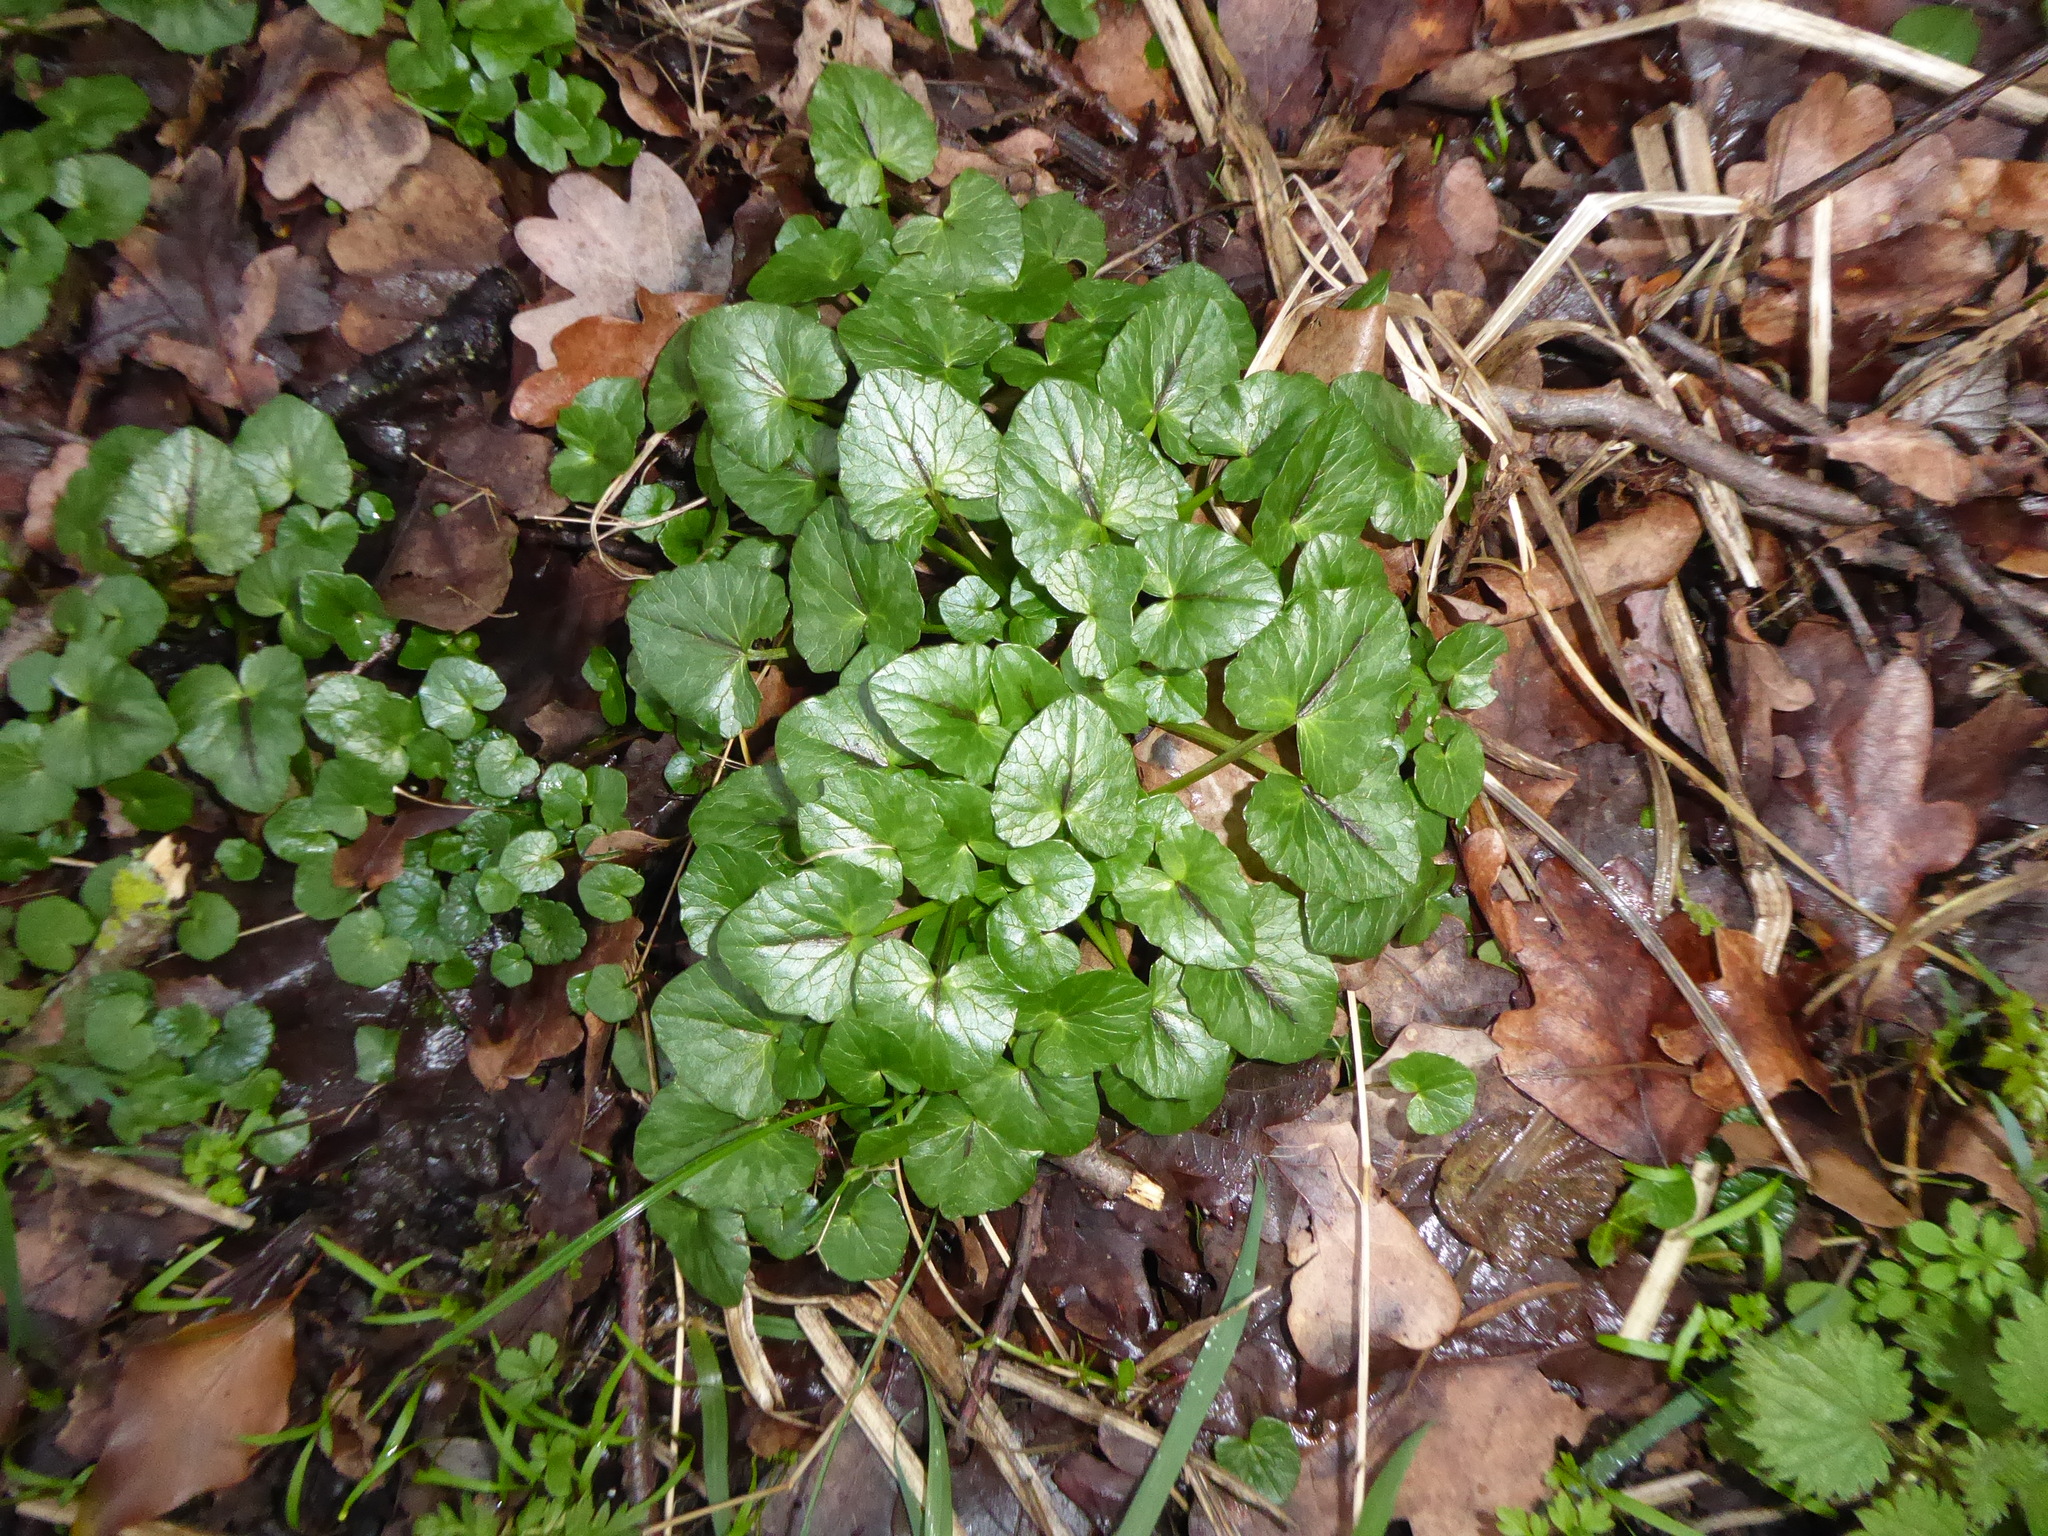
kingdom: Plantae
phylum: Tracheophyta
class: Magnoliopsida
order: Ranunculales
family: Ranunculaceae
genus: Ficaria
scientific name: Ficaria verna
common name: Lesser celandine
